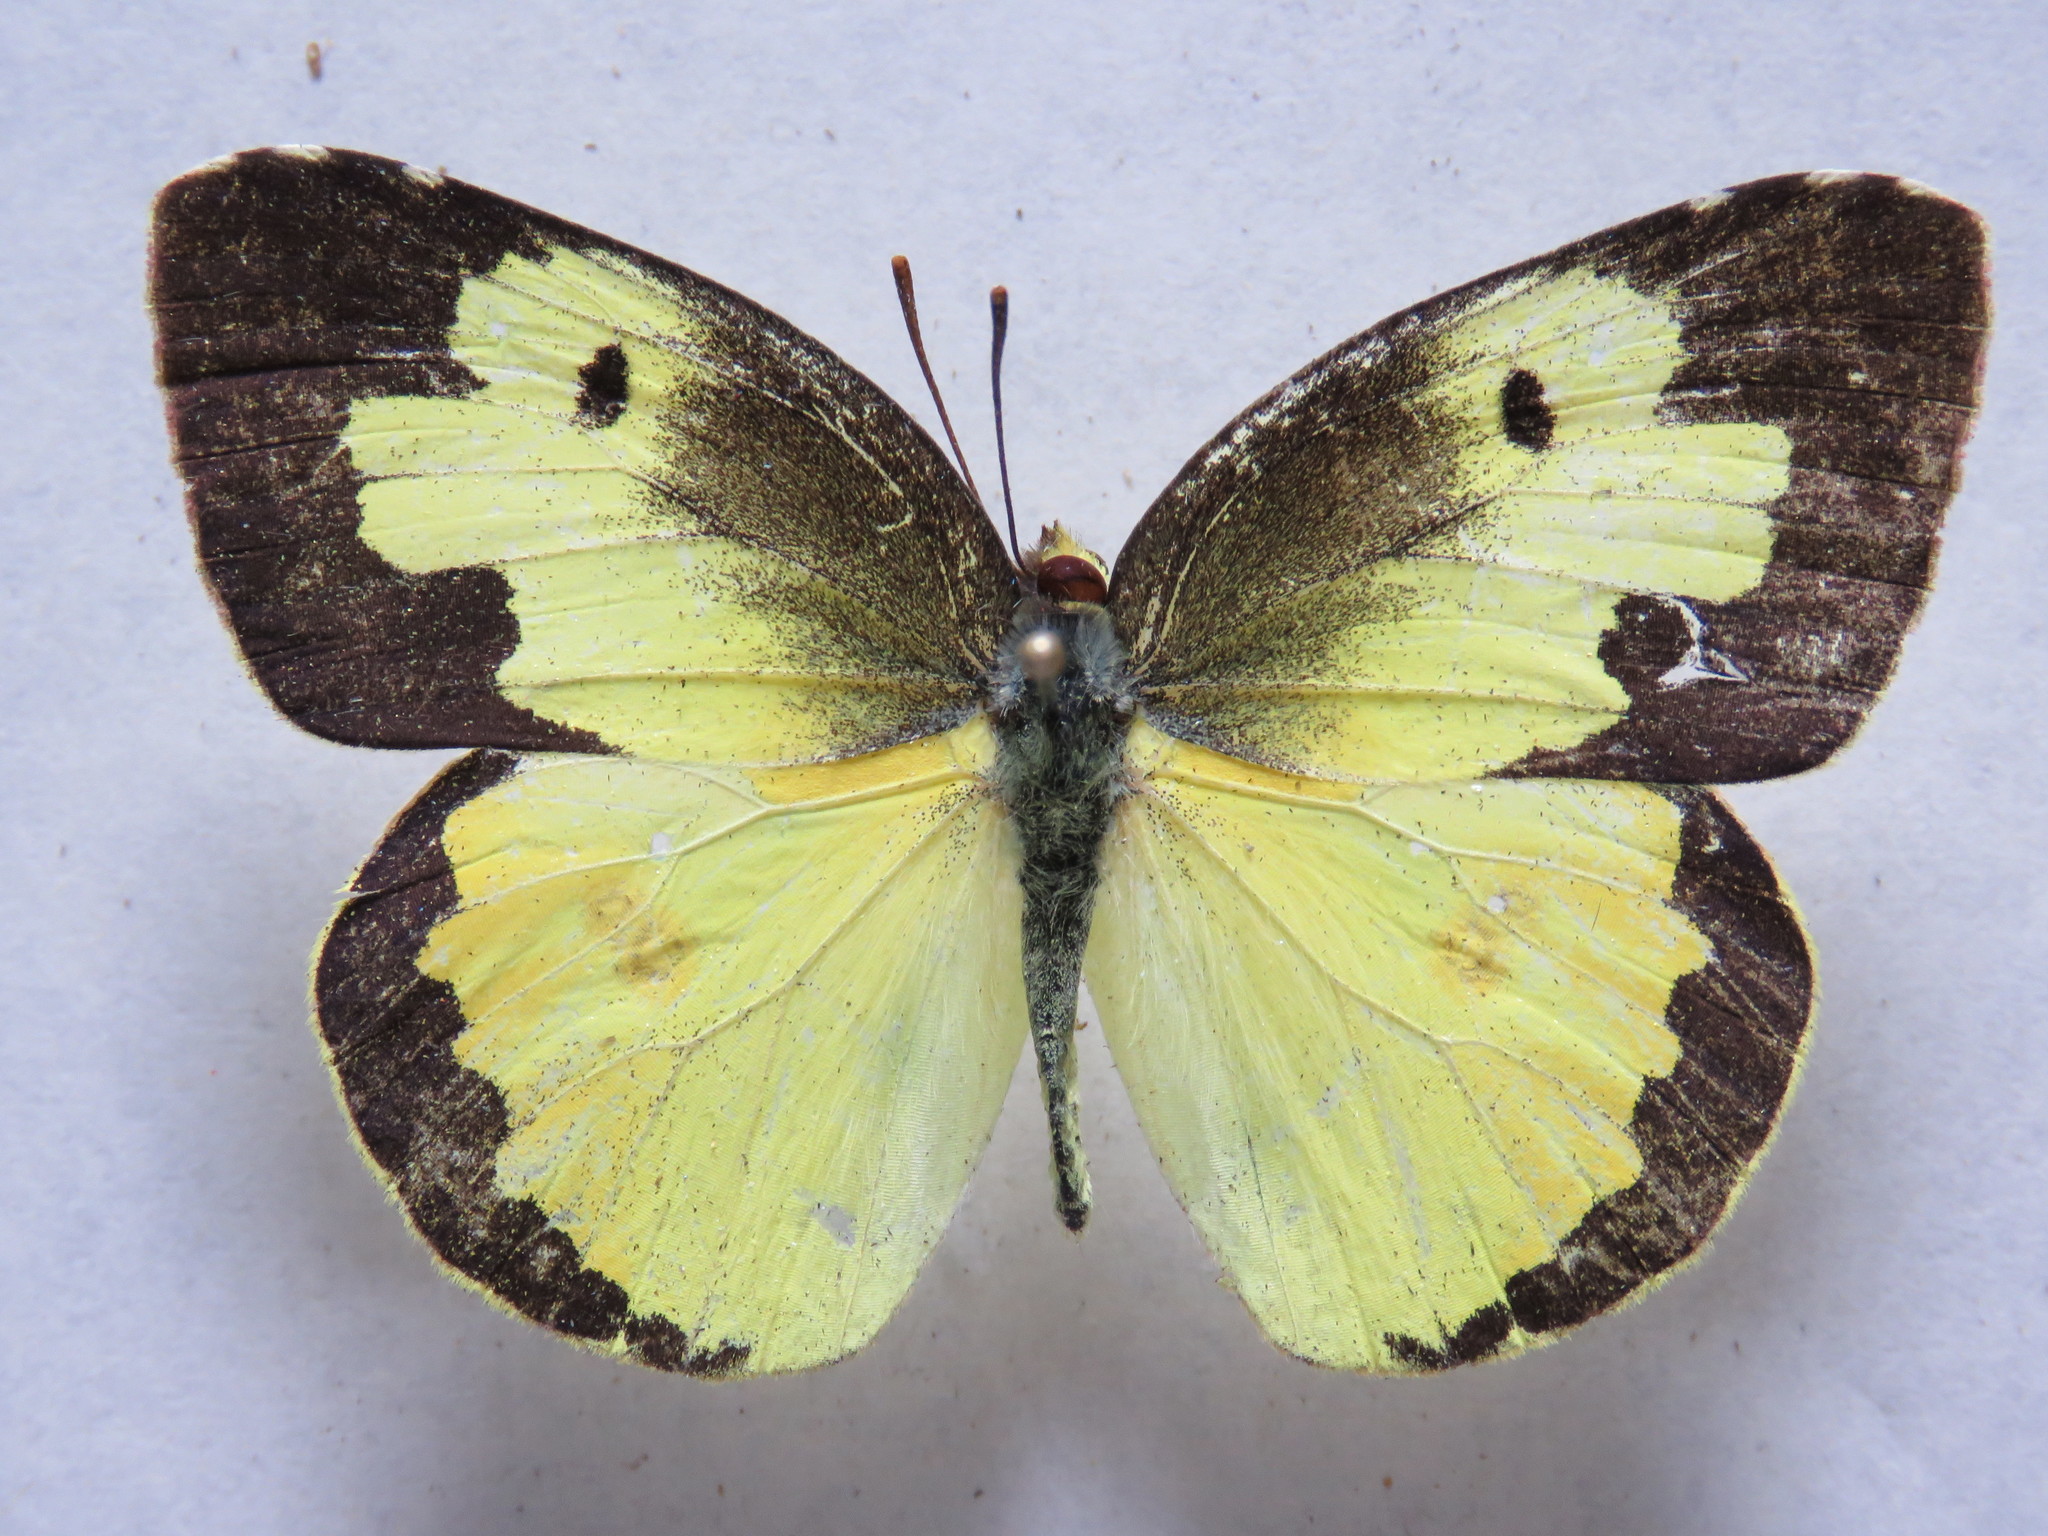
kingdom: Animalia
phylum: Arthropoda
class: Insecta
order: Lepidoptera
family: Pieridae
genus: Zerene
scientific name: Zerene cesonia
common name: Southern dogface
